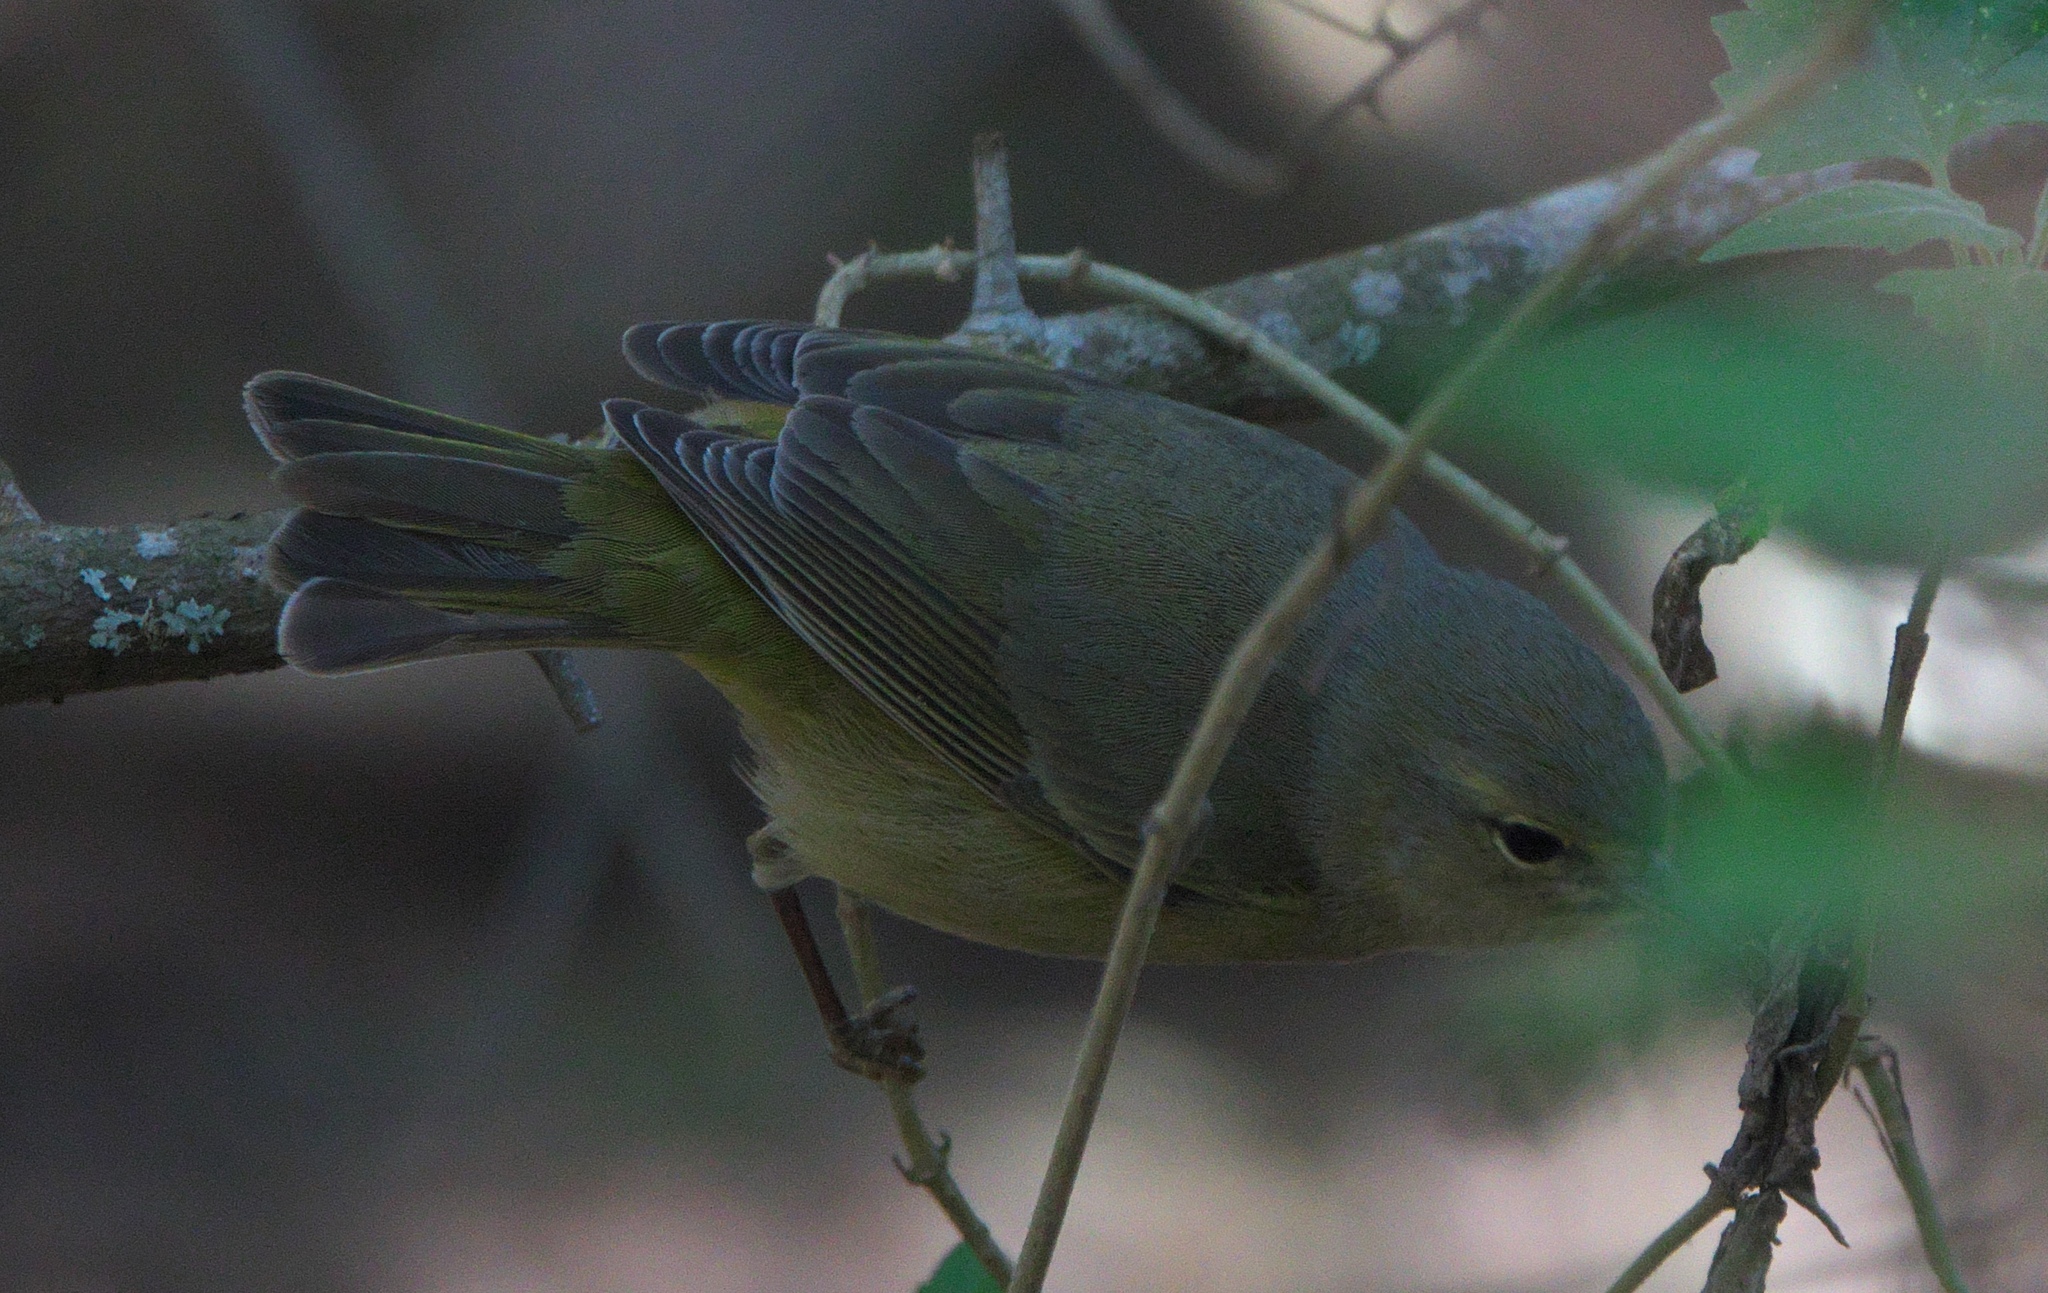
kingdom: Animalia
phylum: Chordata
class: Aves
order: Passeriformes
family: Parulidae
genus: Leiothlypis
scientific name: Leiothlypis celata
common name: Orange-crowned warbler
